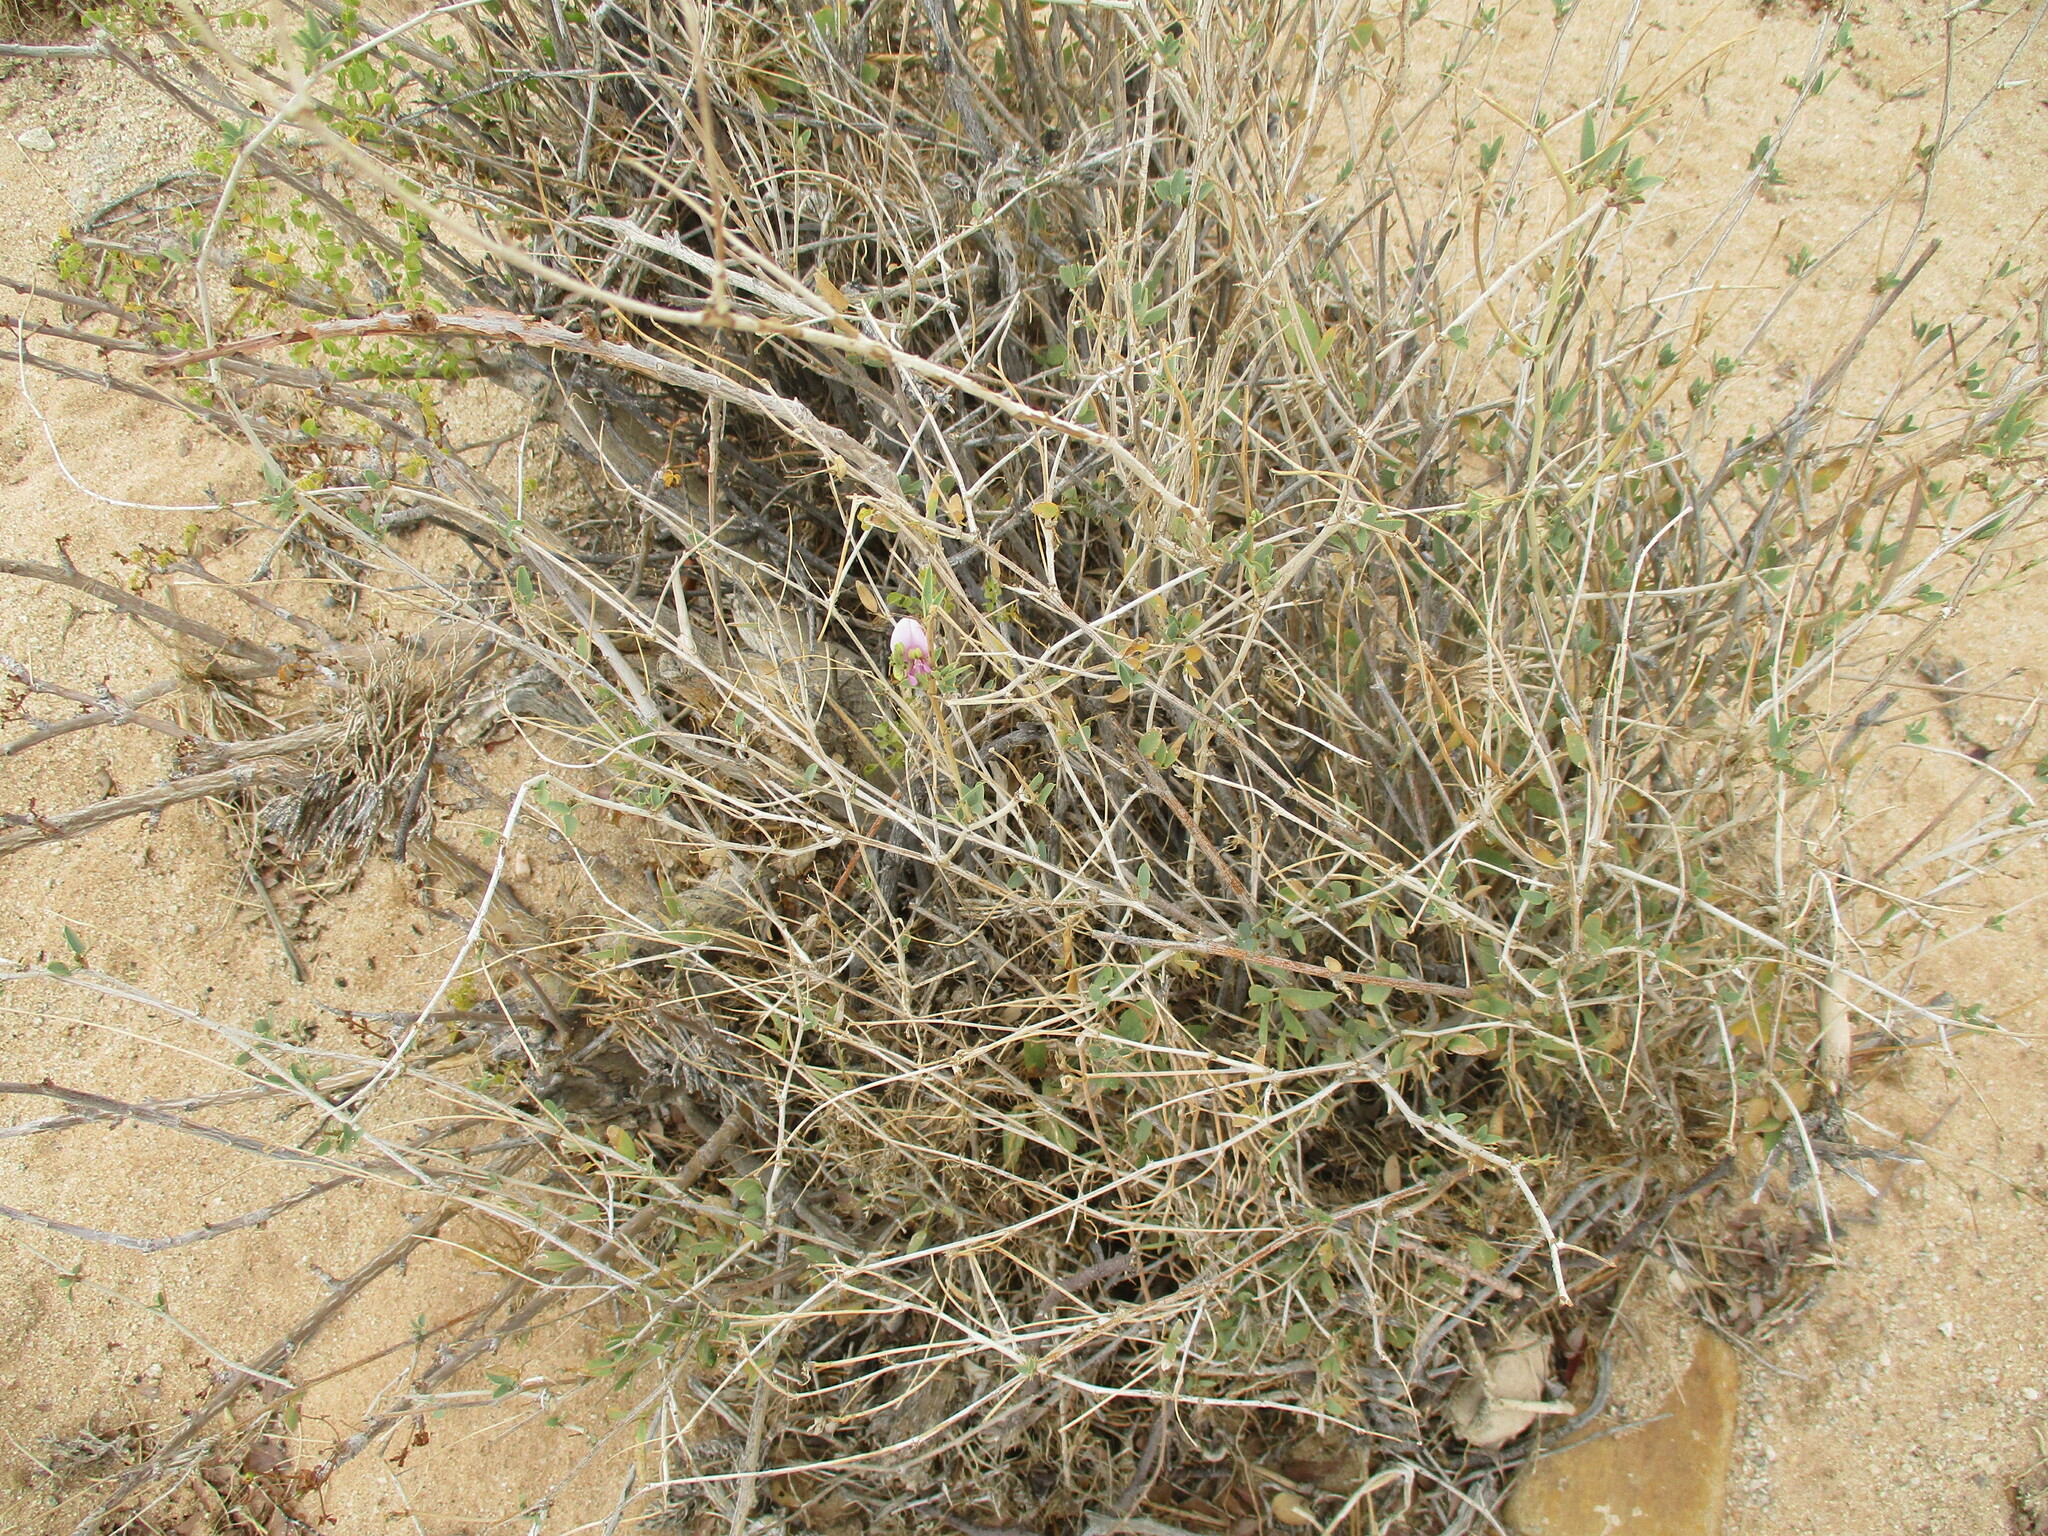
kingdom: Plantae
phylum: Tracheophyta
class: Magnoliopsida
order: Fabales
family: Fabaceae
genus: Otoptera
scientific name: Otoptera burchellii
